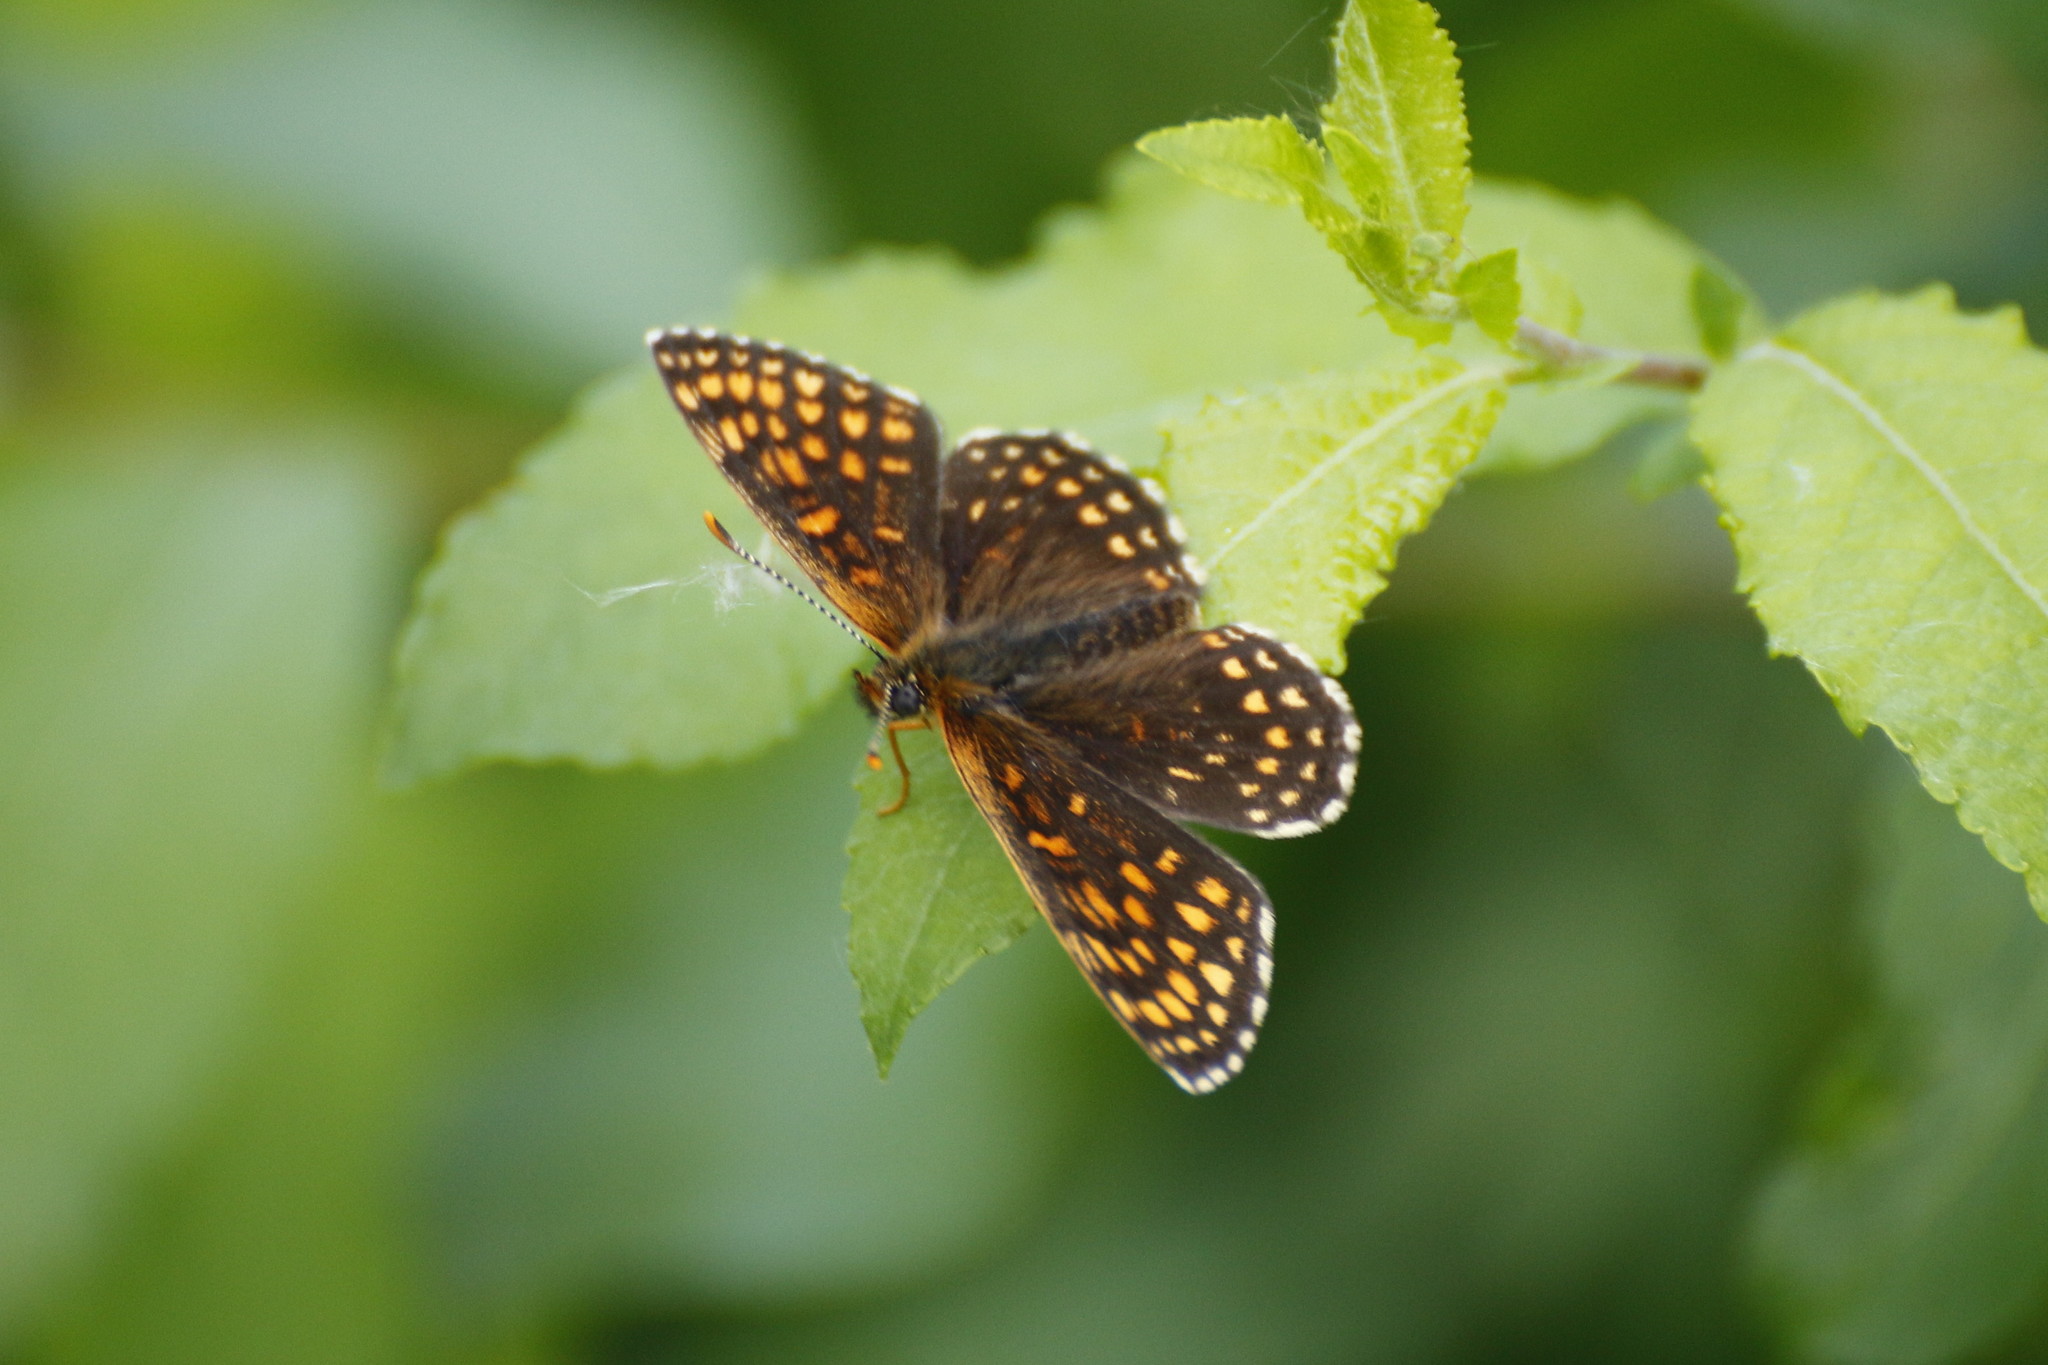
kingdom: Animalia
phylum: Arthropoda
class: Insecta
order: Lepidoptera
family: Nymphalidae
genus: Melitaea
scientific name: Melitaea diamina
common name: False heath fritillary
